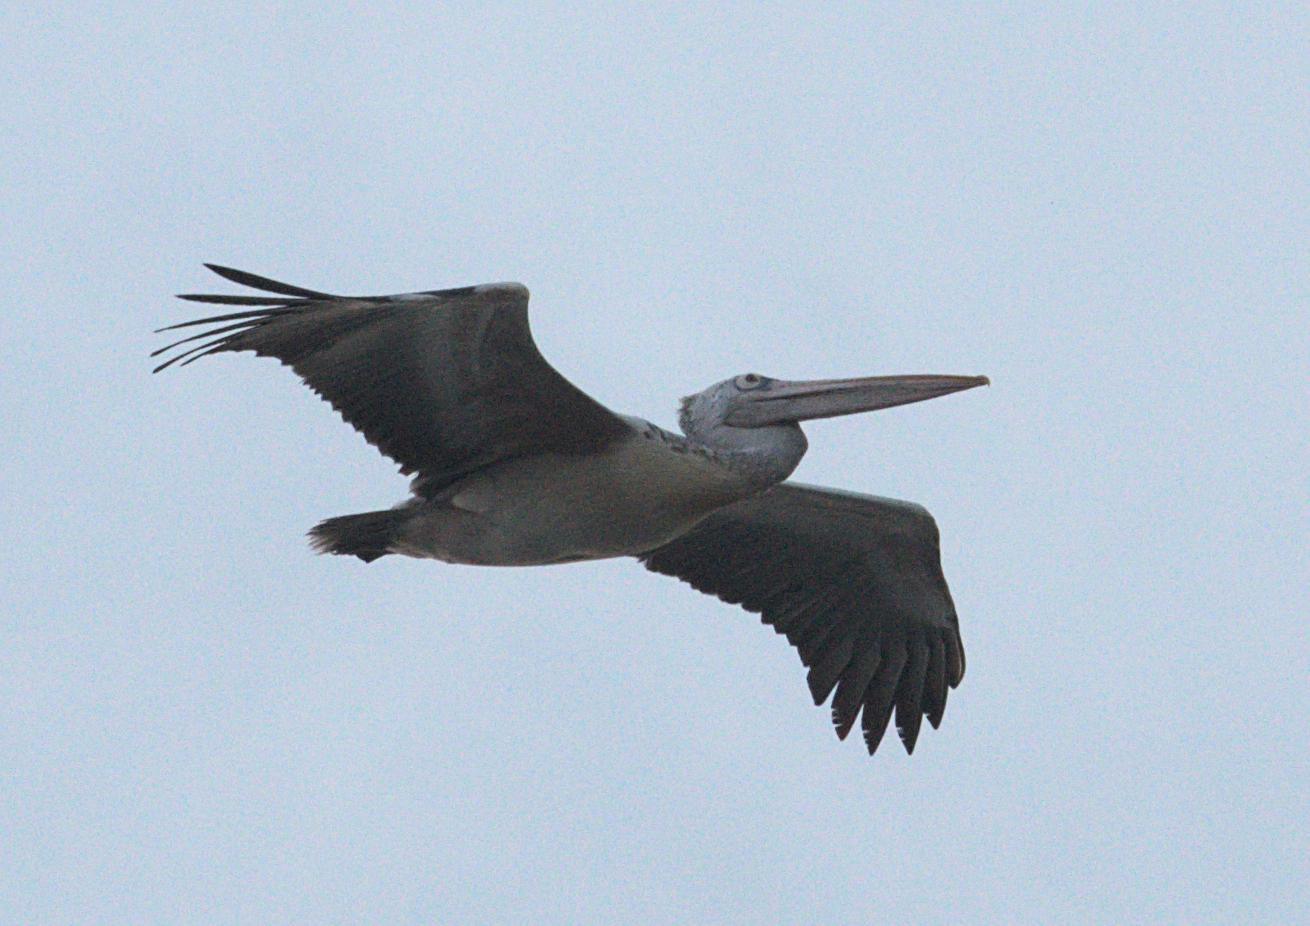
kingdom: Animalia
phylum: Chordata
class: Aves
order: Pelecaniformes
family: Pelecanidae
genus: Pelecanus
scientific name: Pelecanus philippensis
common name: Spot-billed pelican
